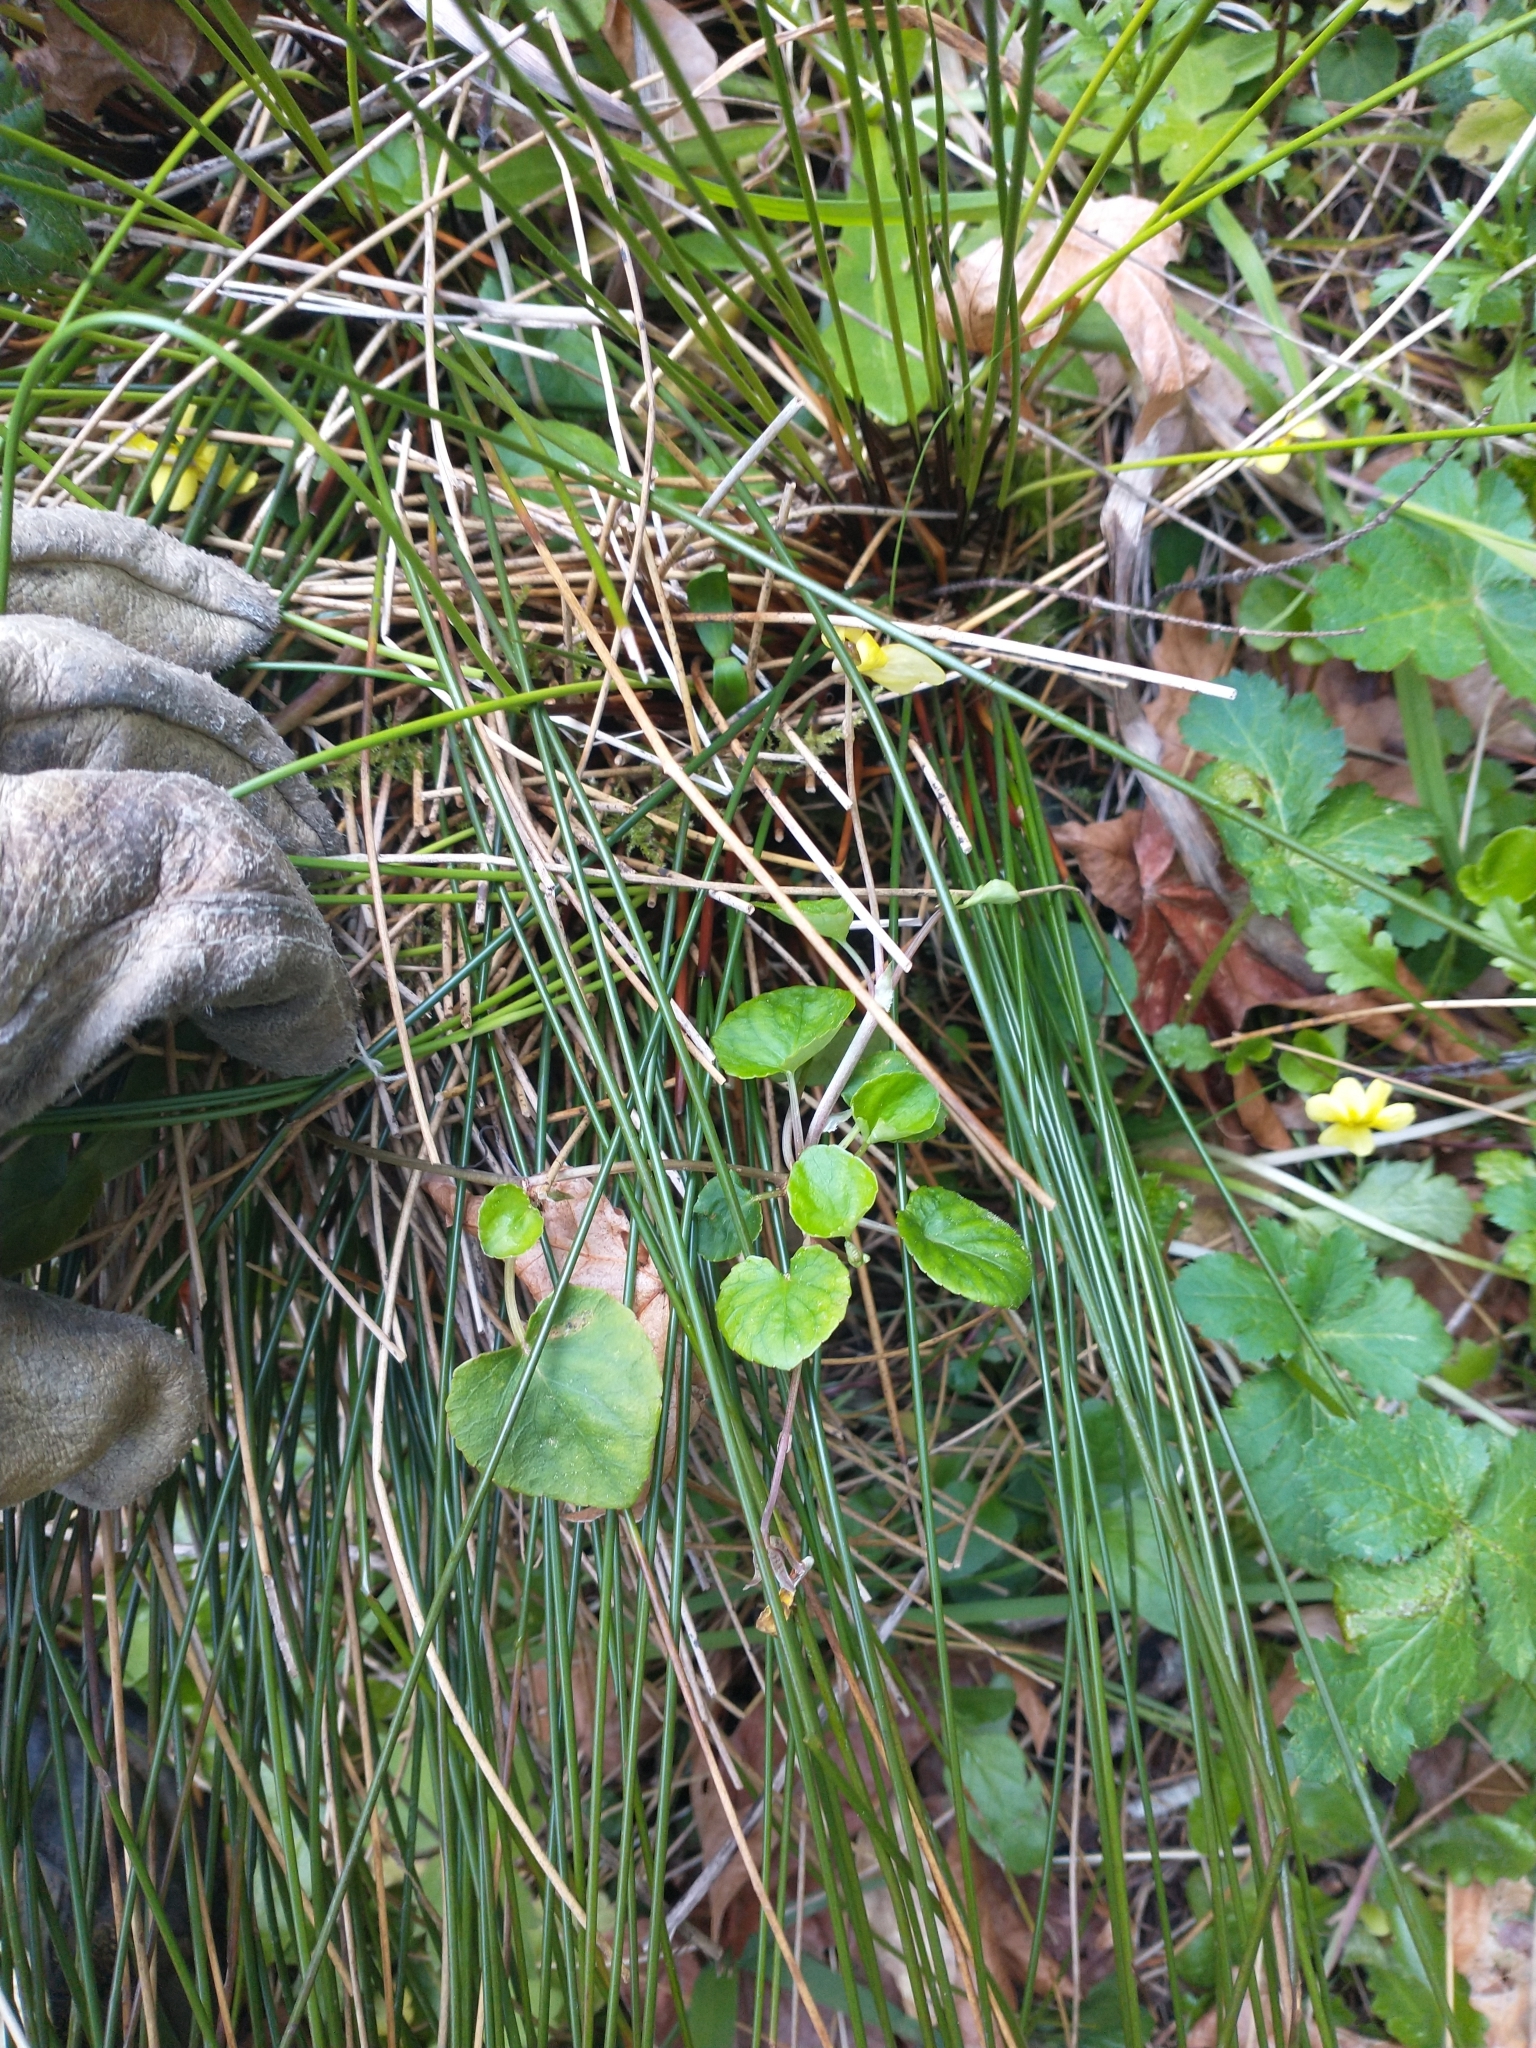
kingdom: Plantae
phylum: Tracheophyta
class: Magnoliopsida
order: Malpighiales
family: Violaceae
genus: Viola
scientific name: Viola sempervirens
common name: Evergreen violet
